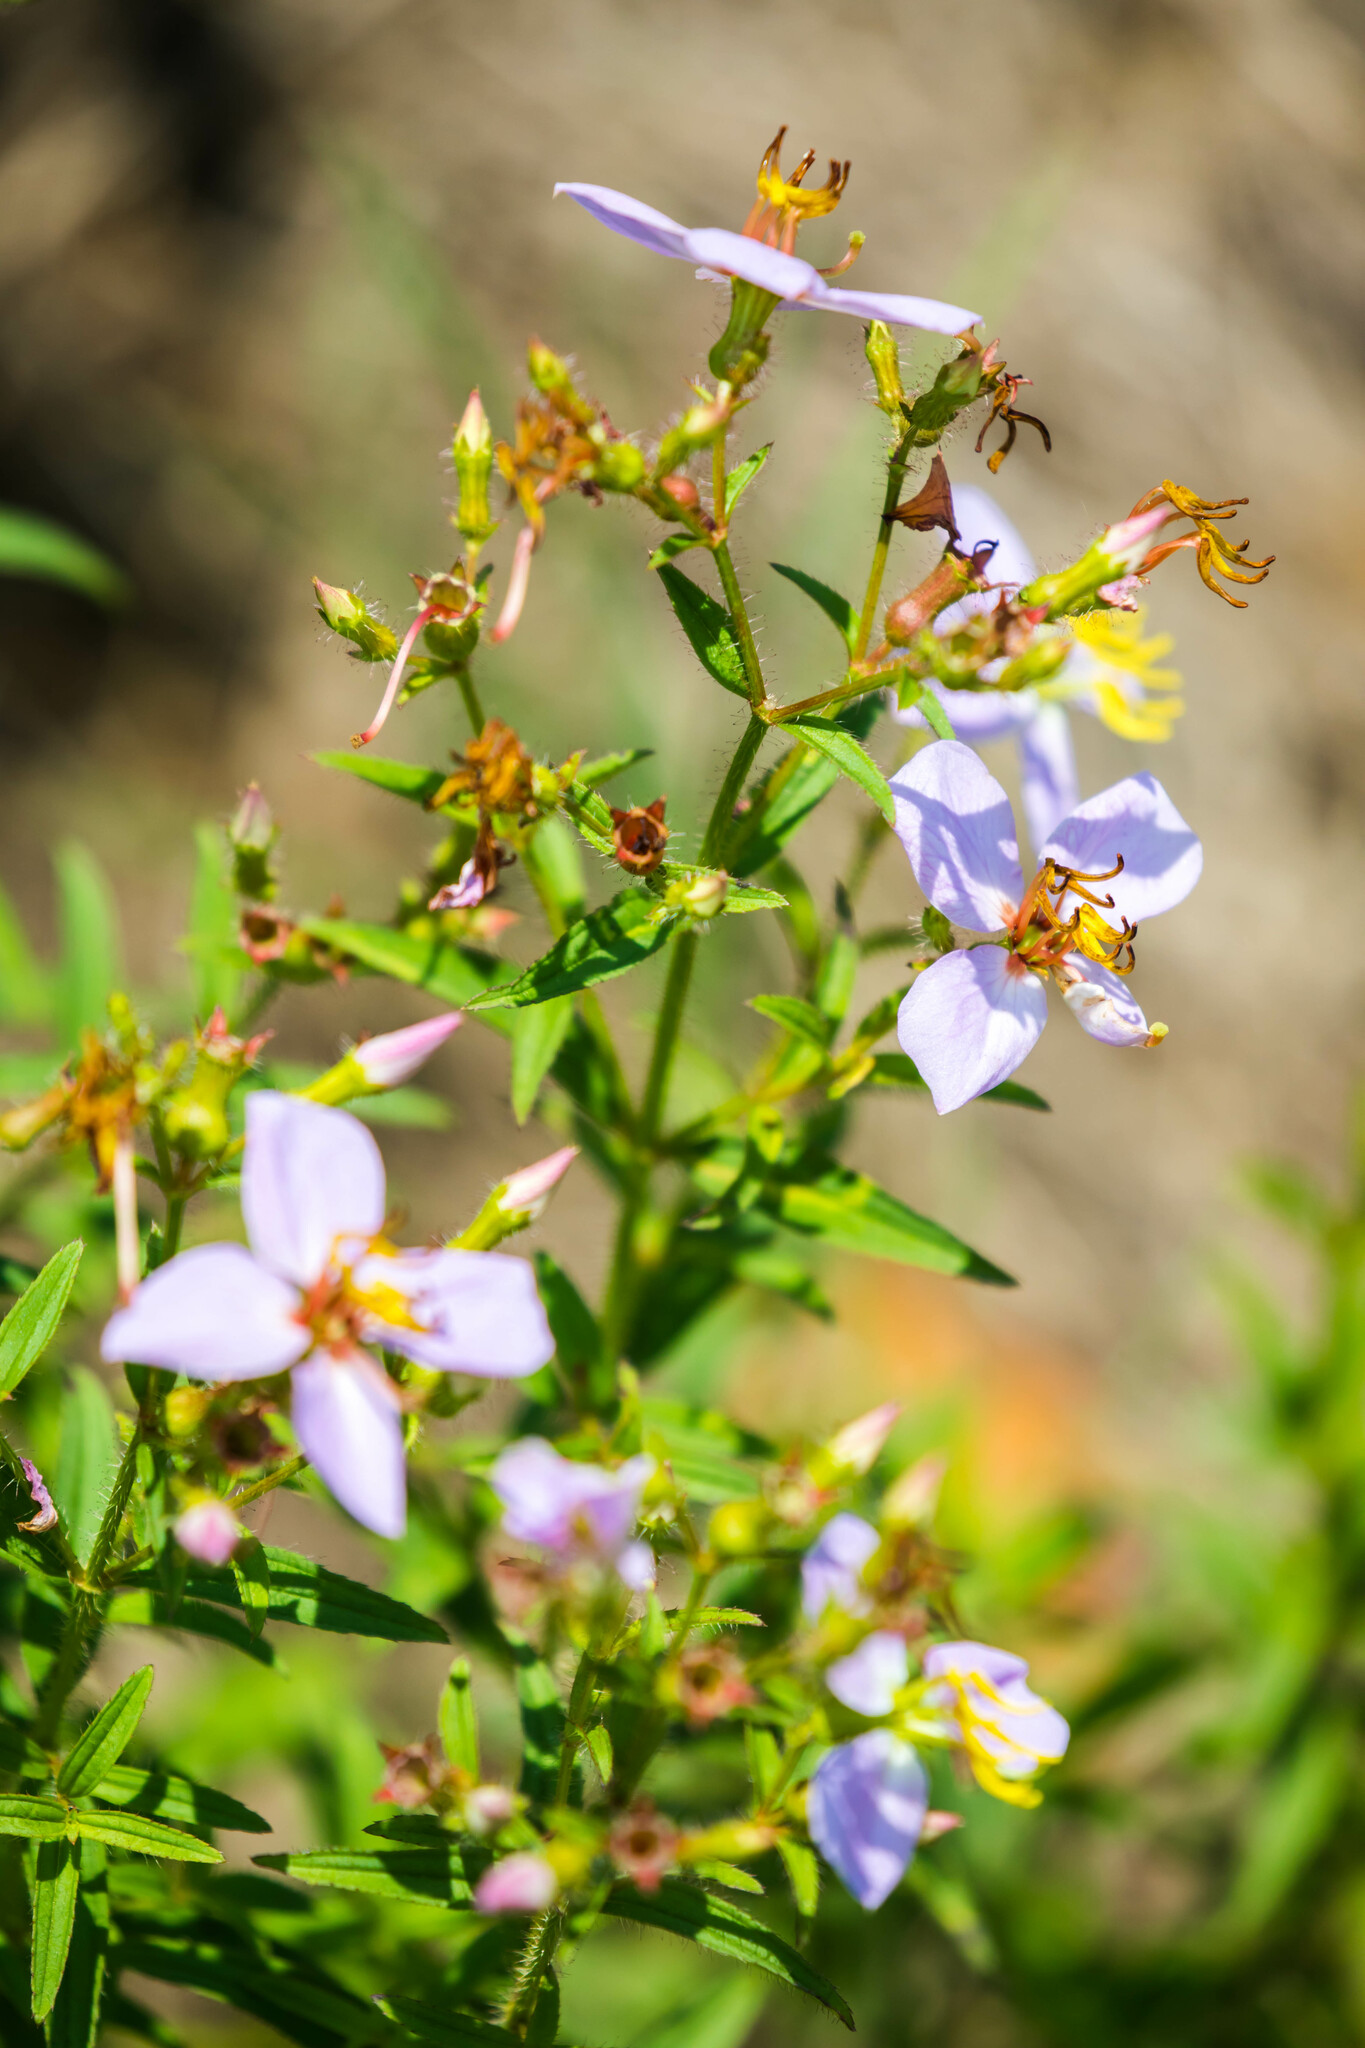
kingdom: Plantae
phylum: Tracheophyta
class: Magnoliopsida
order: Myrtales
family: Melastomataceae
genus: Rhexia
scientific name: Rhexia mariana
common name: Dull meadow-pitcher
